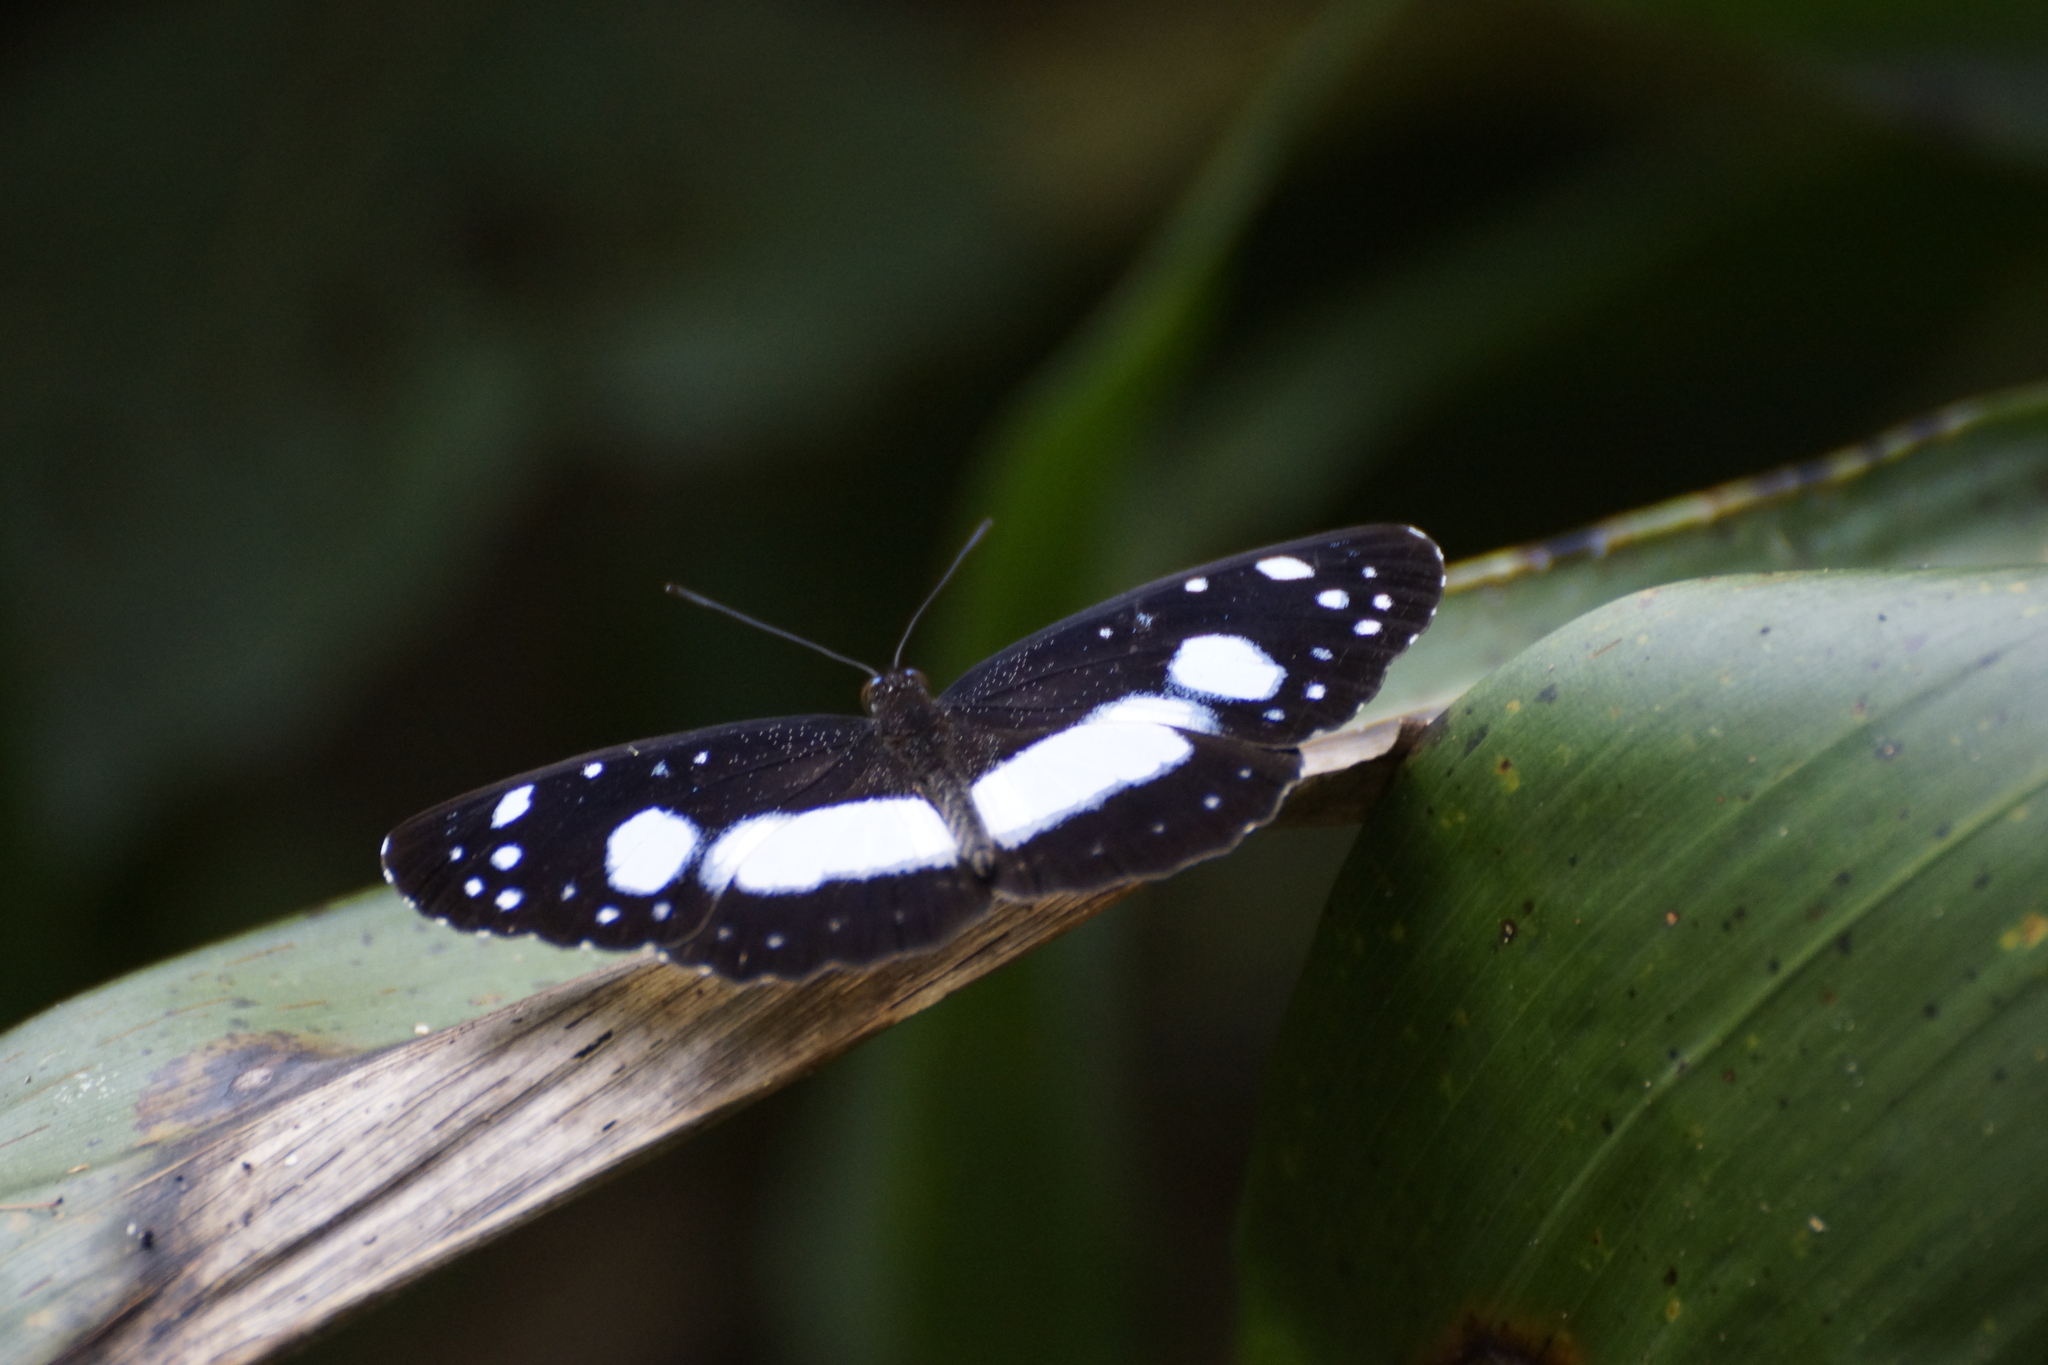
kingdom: Animalia
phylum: Arthropoda
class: Insecta
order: Lepidoptera
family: Nymphalidae
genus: Pantoporia
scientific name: Pantoporia venilia
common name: Cape york aeroplane
